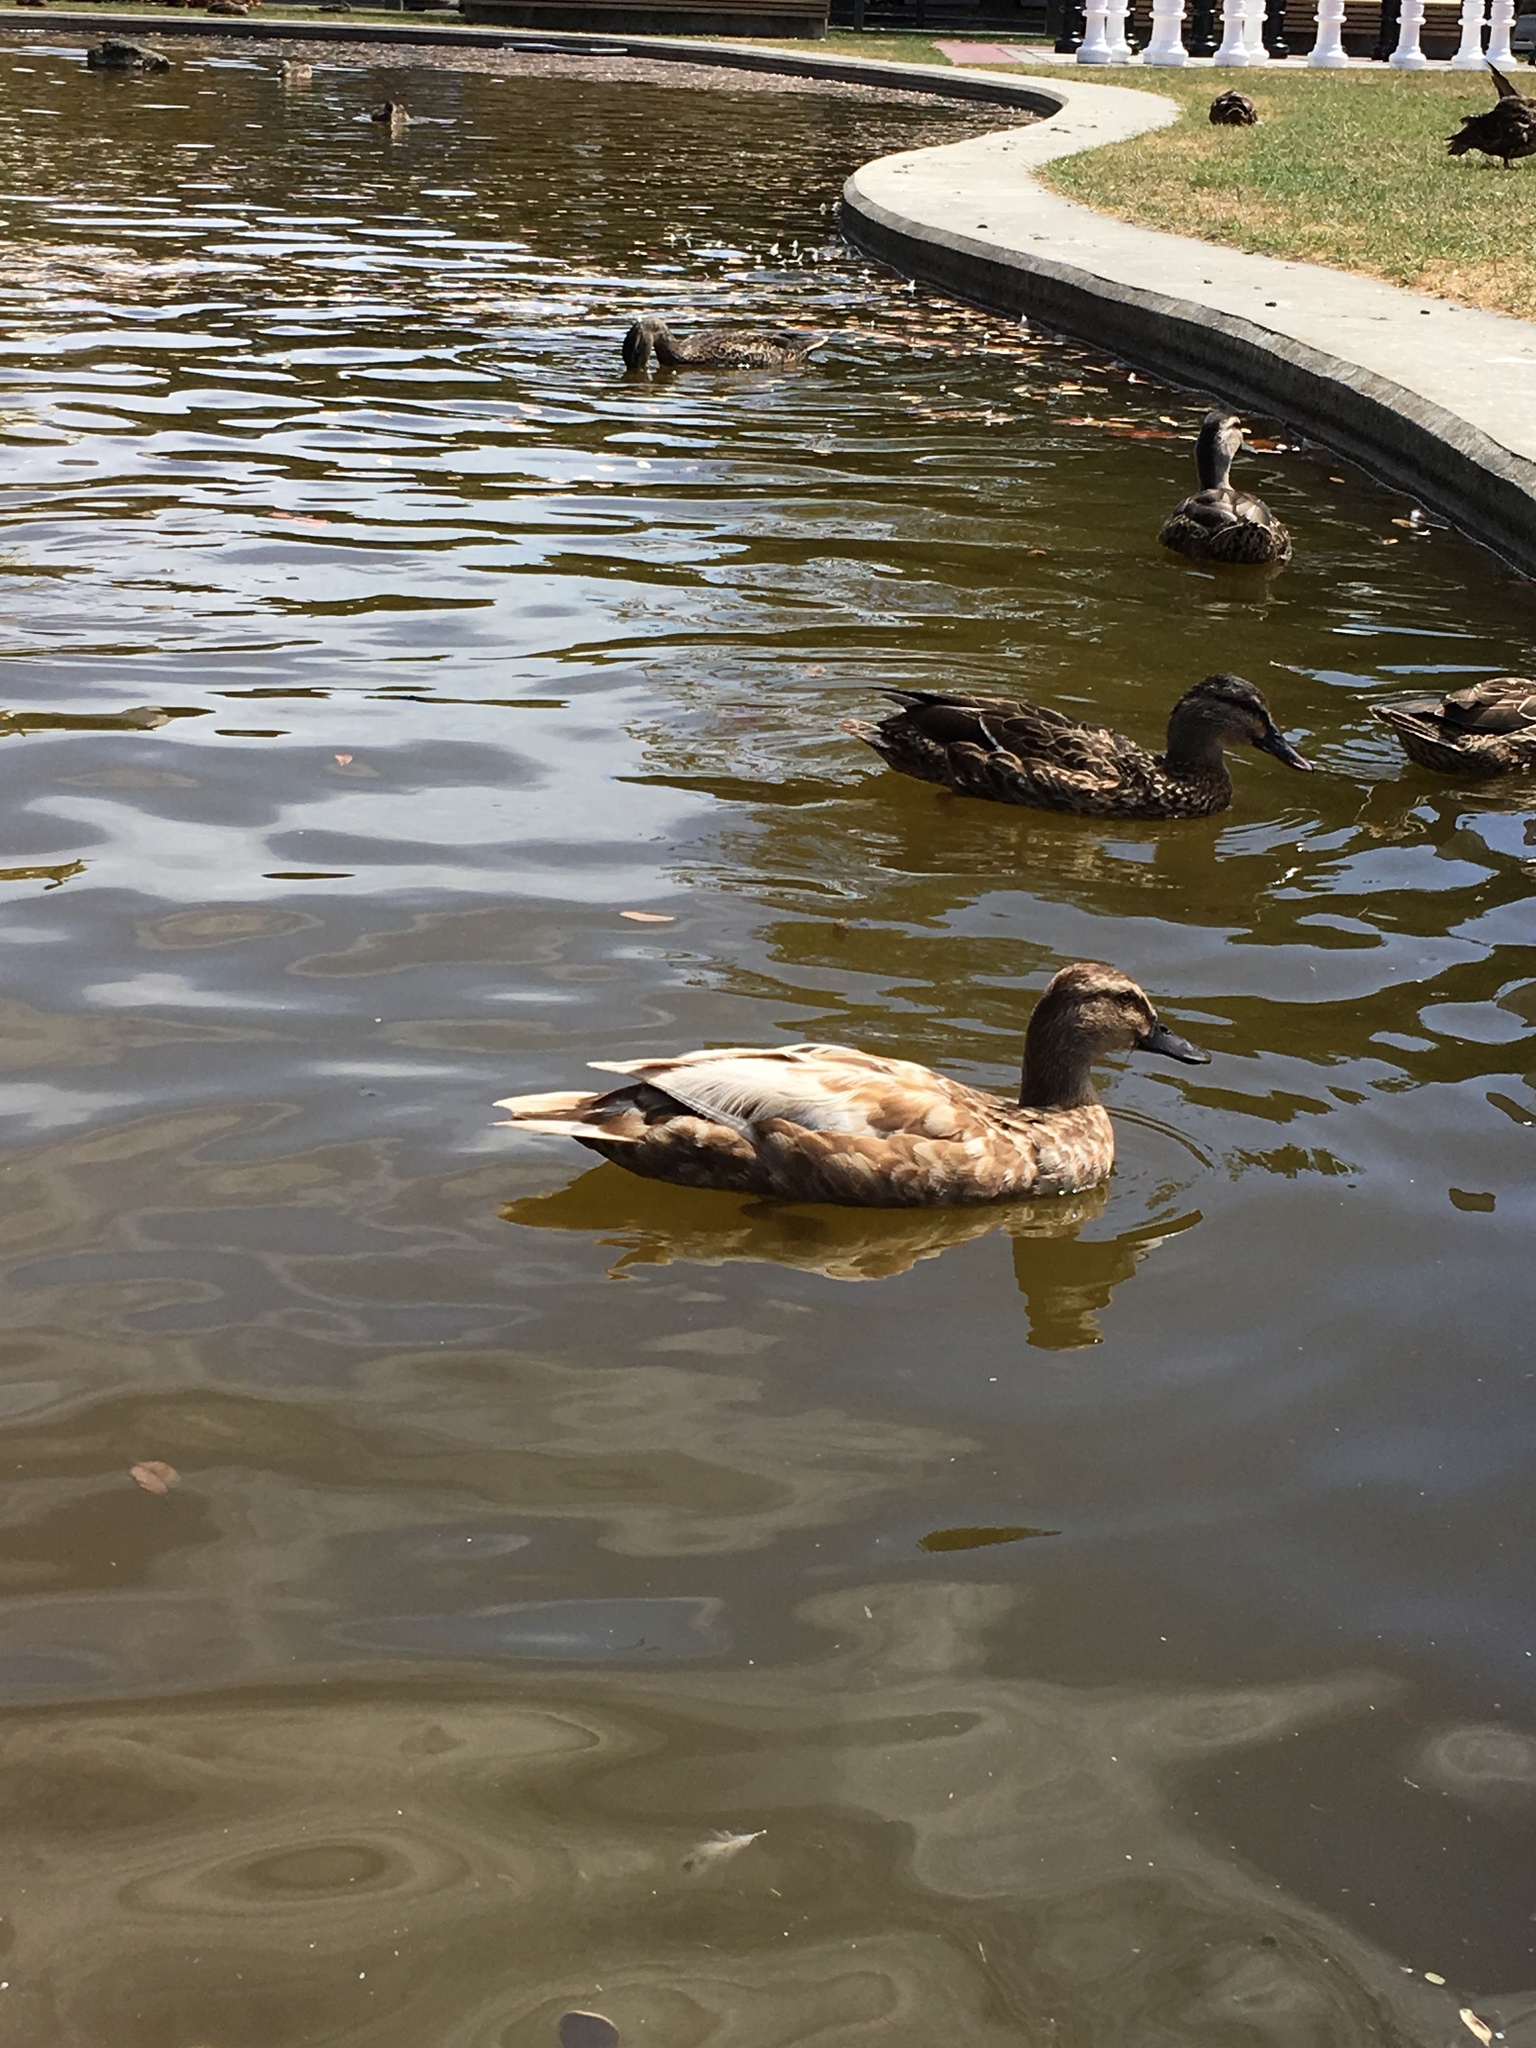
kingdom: Animalia
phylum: Chordata
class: Aves
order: Anseriformes
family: Anatidae
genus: Anas
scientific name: Anas platyrhynchos
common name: Mallard
